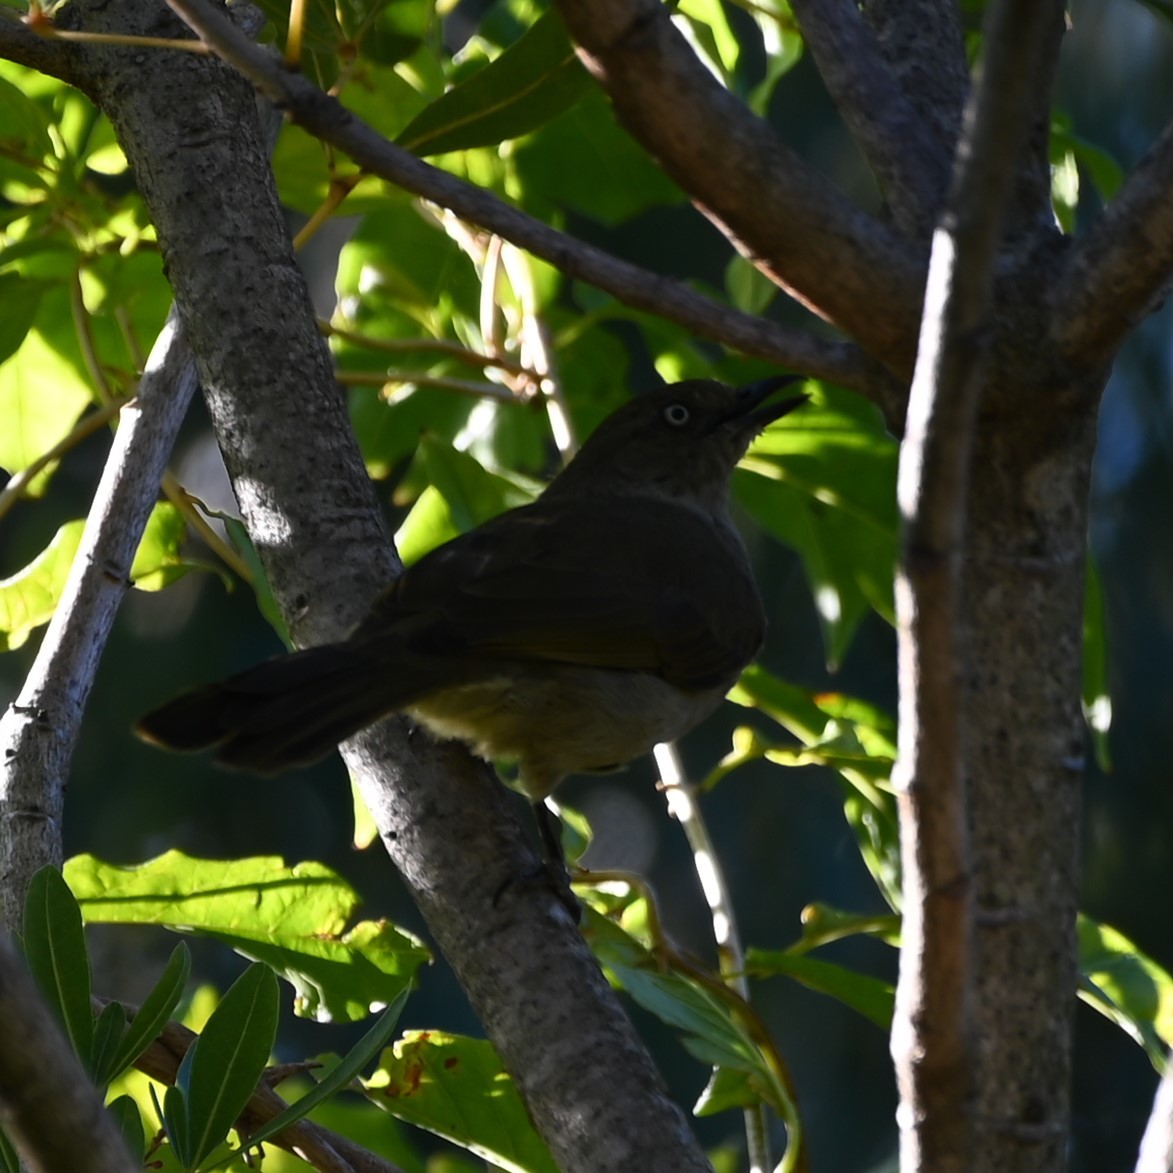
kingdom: Animalia
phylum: Chordata
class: Aves
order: Passeriformes
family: Pycnonotidae
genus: Andropadus
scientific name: Andropadus importunus
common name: Sombre greenbul
